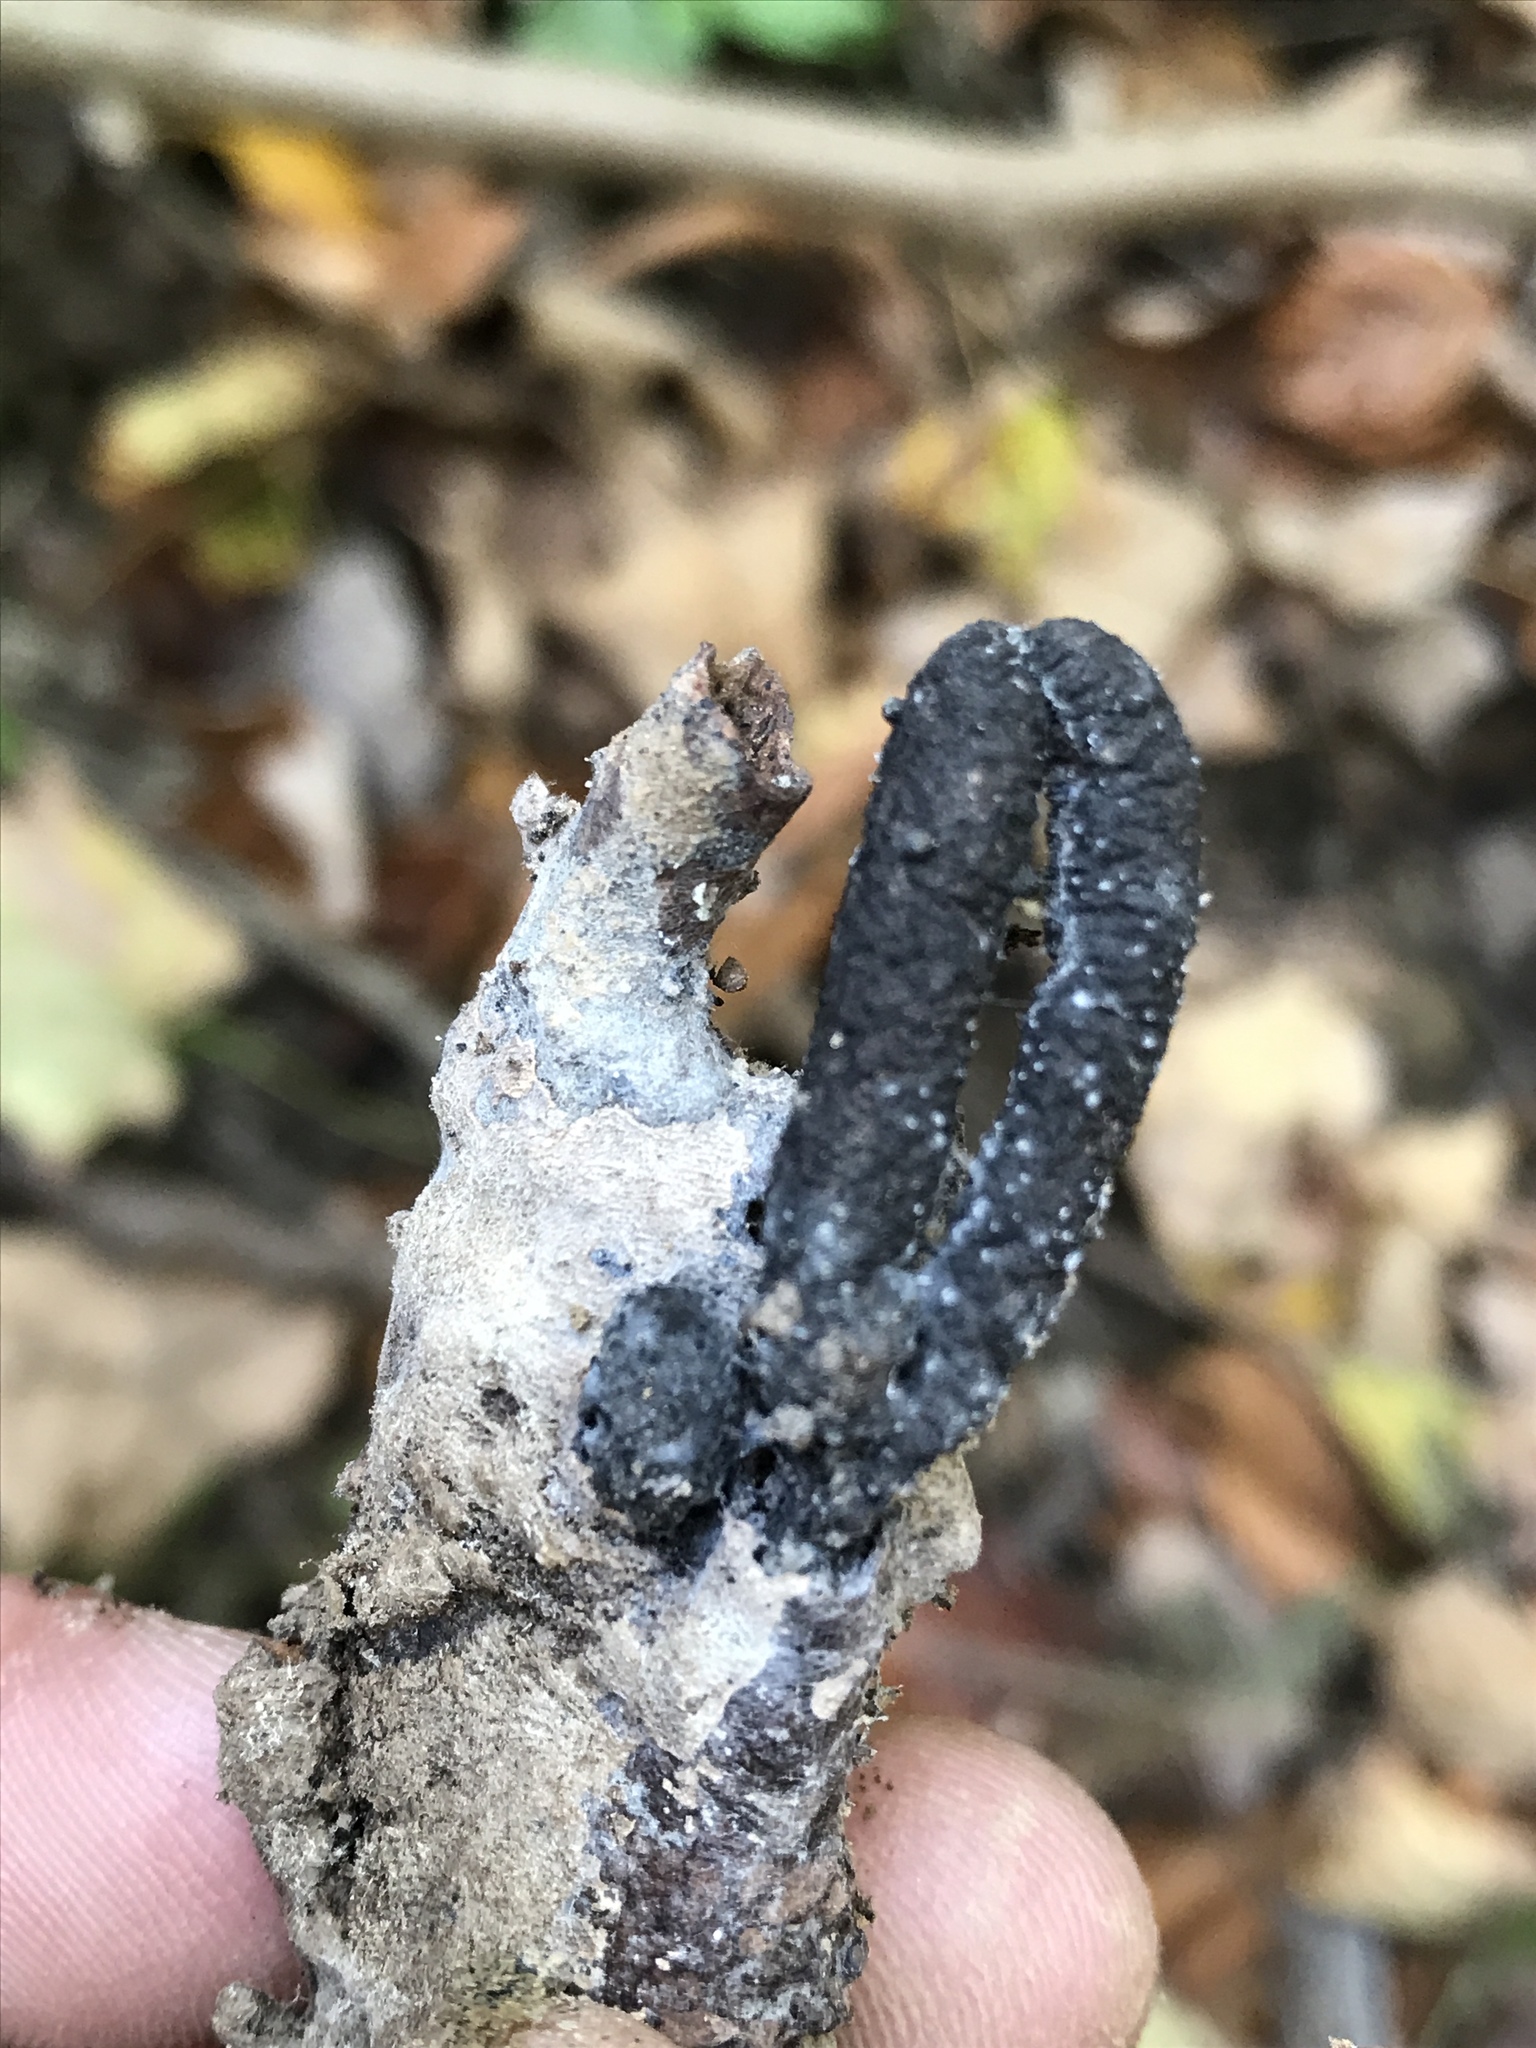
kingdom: Fungi
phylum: Ascomycota
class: Sordariomycetes
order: Xylariales
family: Xylariaceae
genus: Xylaria
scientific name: Xylaria polymorpha
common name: Dead man's fingers
